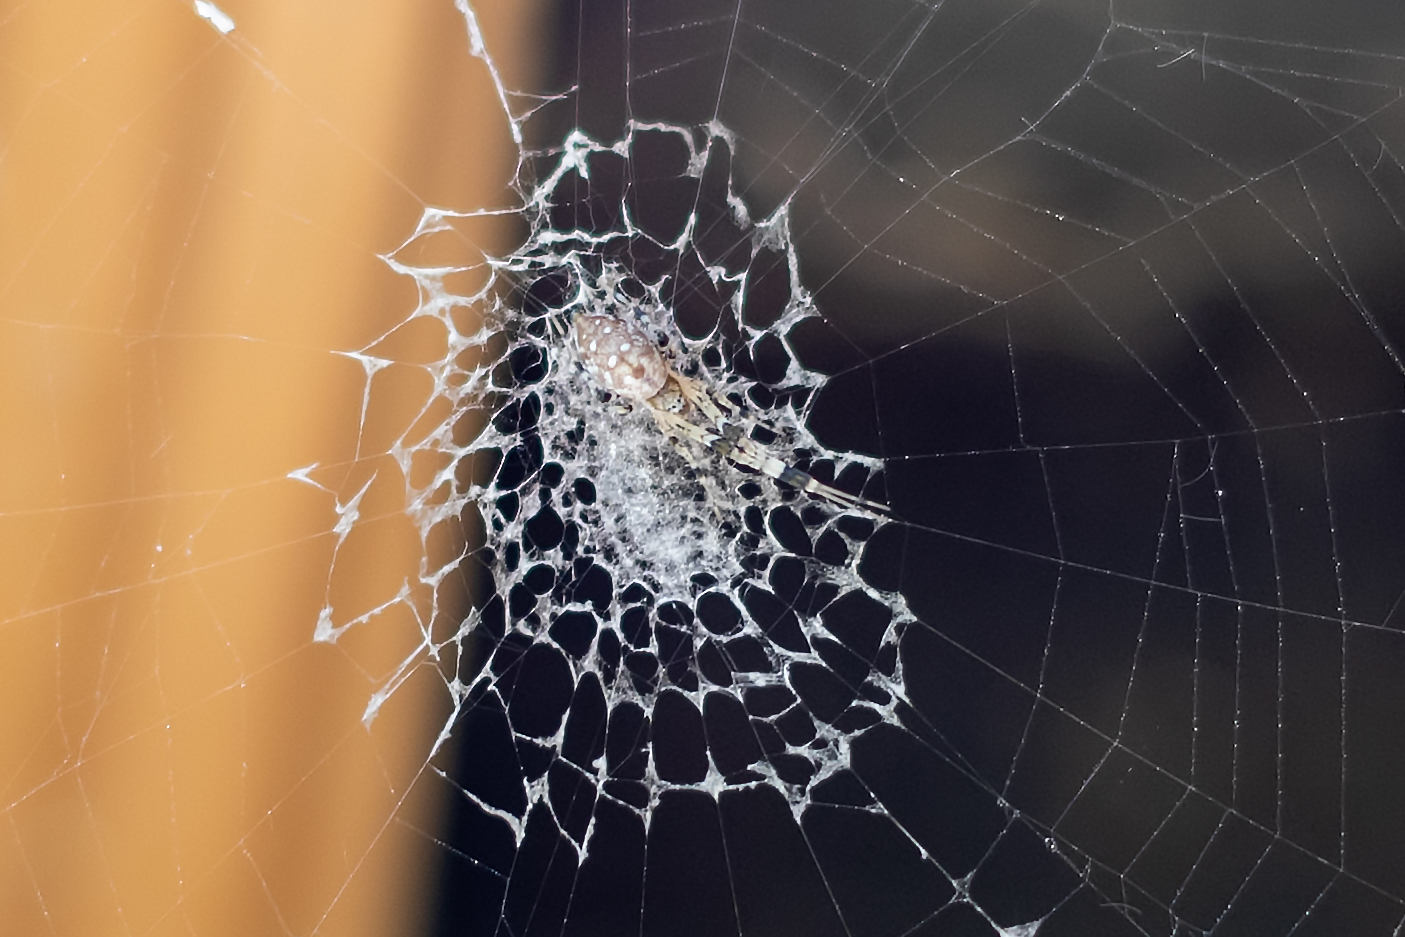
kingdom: Animalia
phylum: Arthropoda
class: Arachnida
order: Araneae
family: Uloboridae
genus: Zosis
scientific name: Zosis geniculata
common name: Hackled orb weavers
